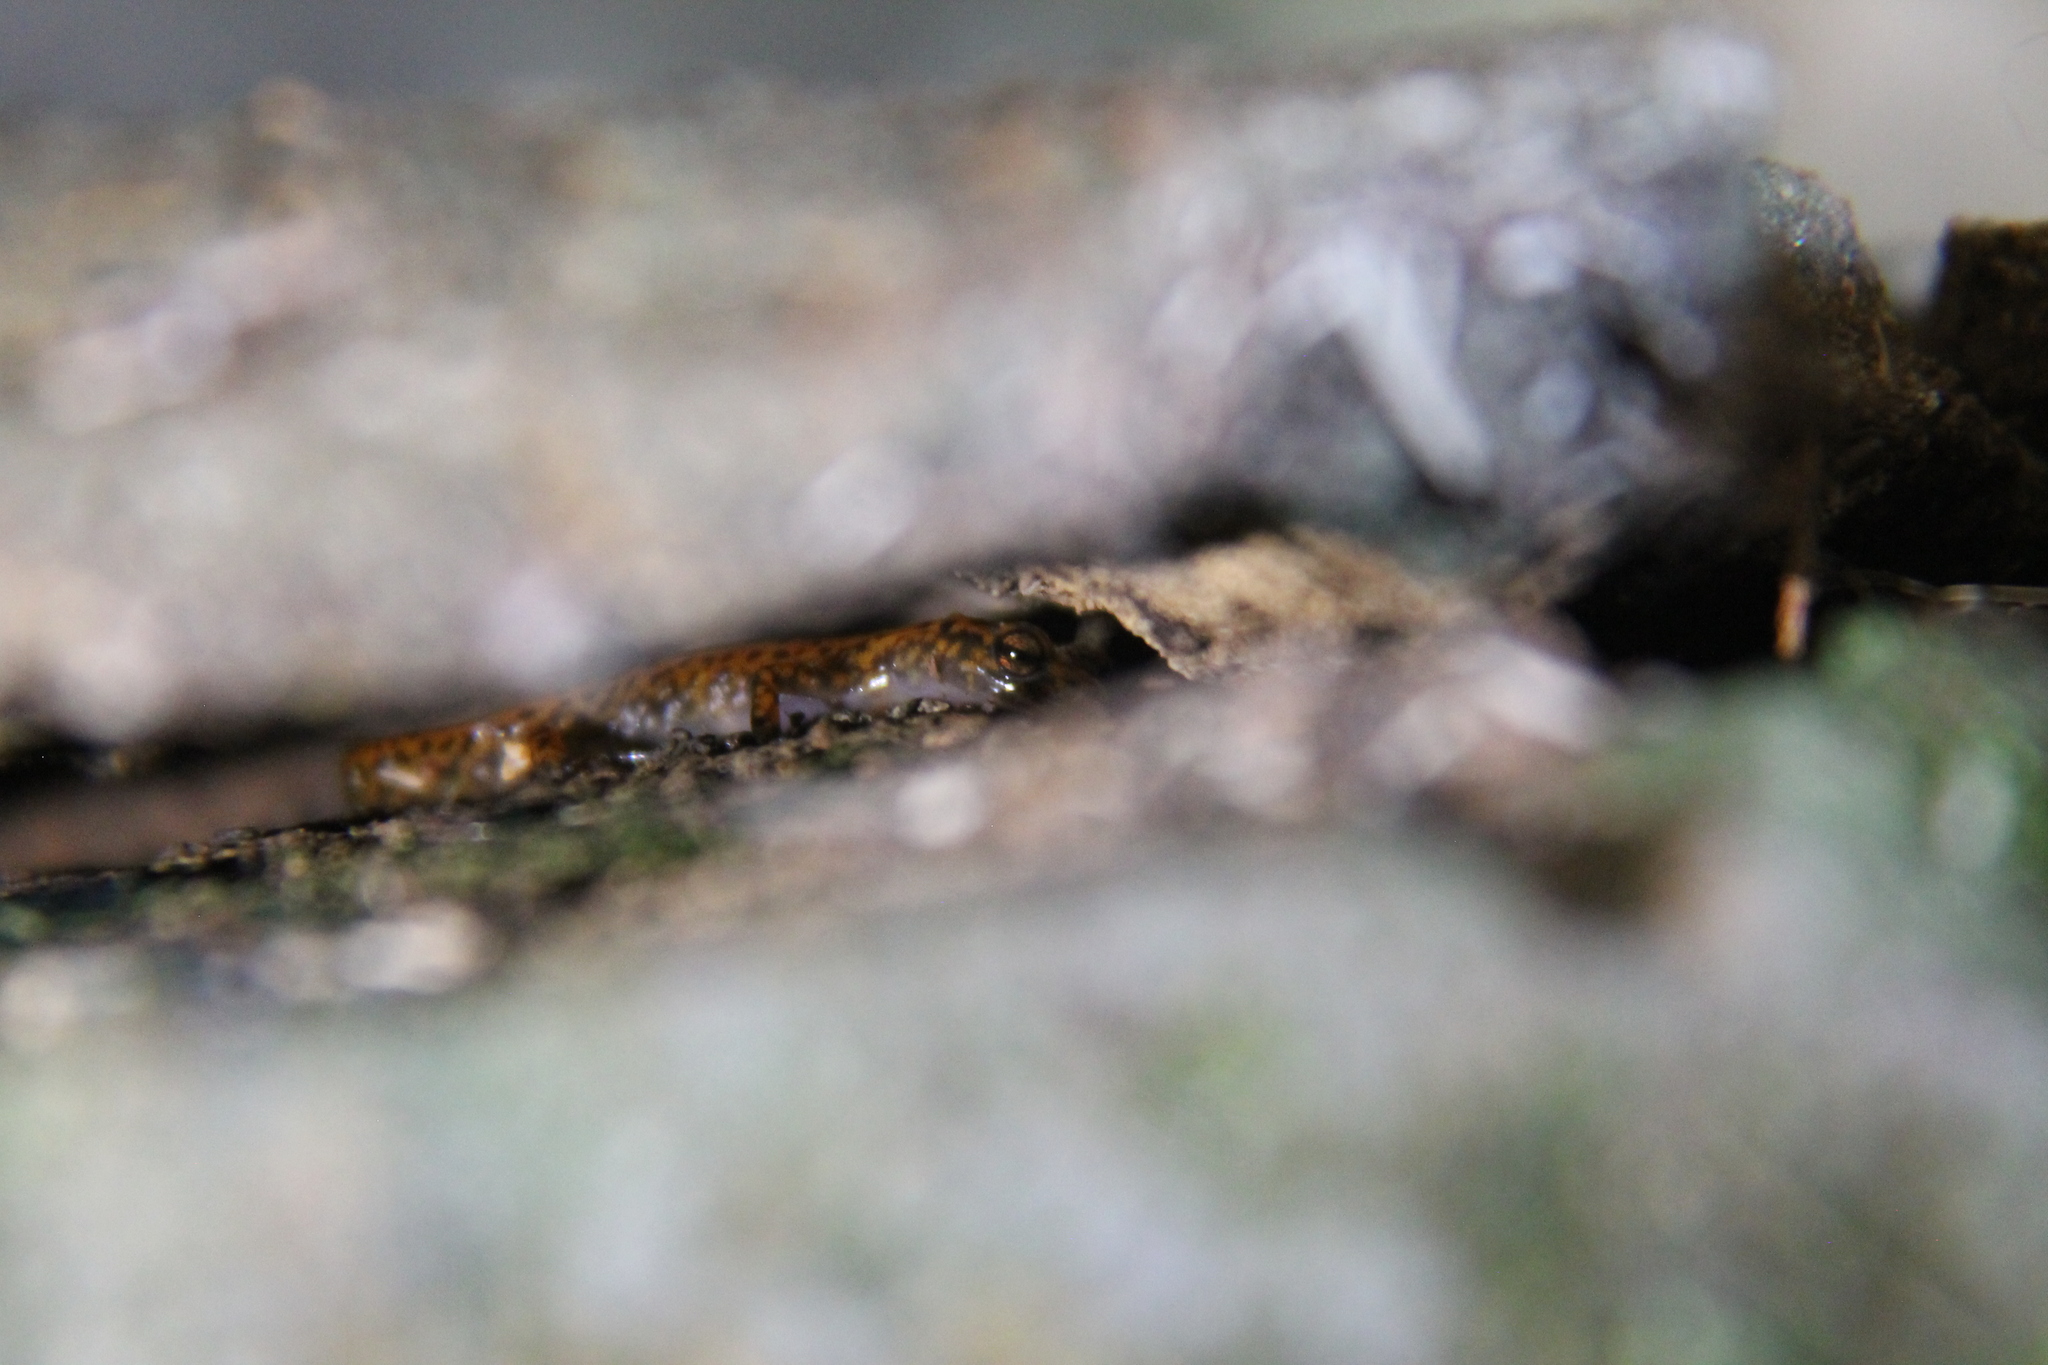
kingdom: Animalia
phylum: Chordata
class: Amphibia
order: Caudata
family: Plethodontidae
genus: Eurycea
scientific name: Eurycea lucifuga
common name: Cave salamander
